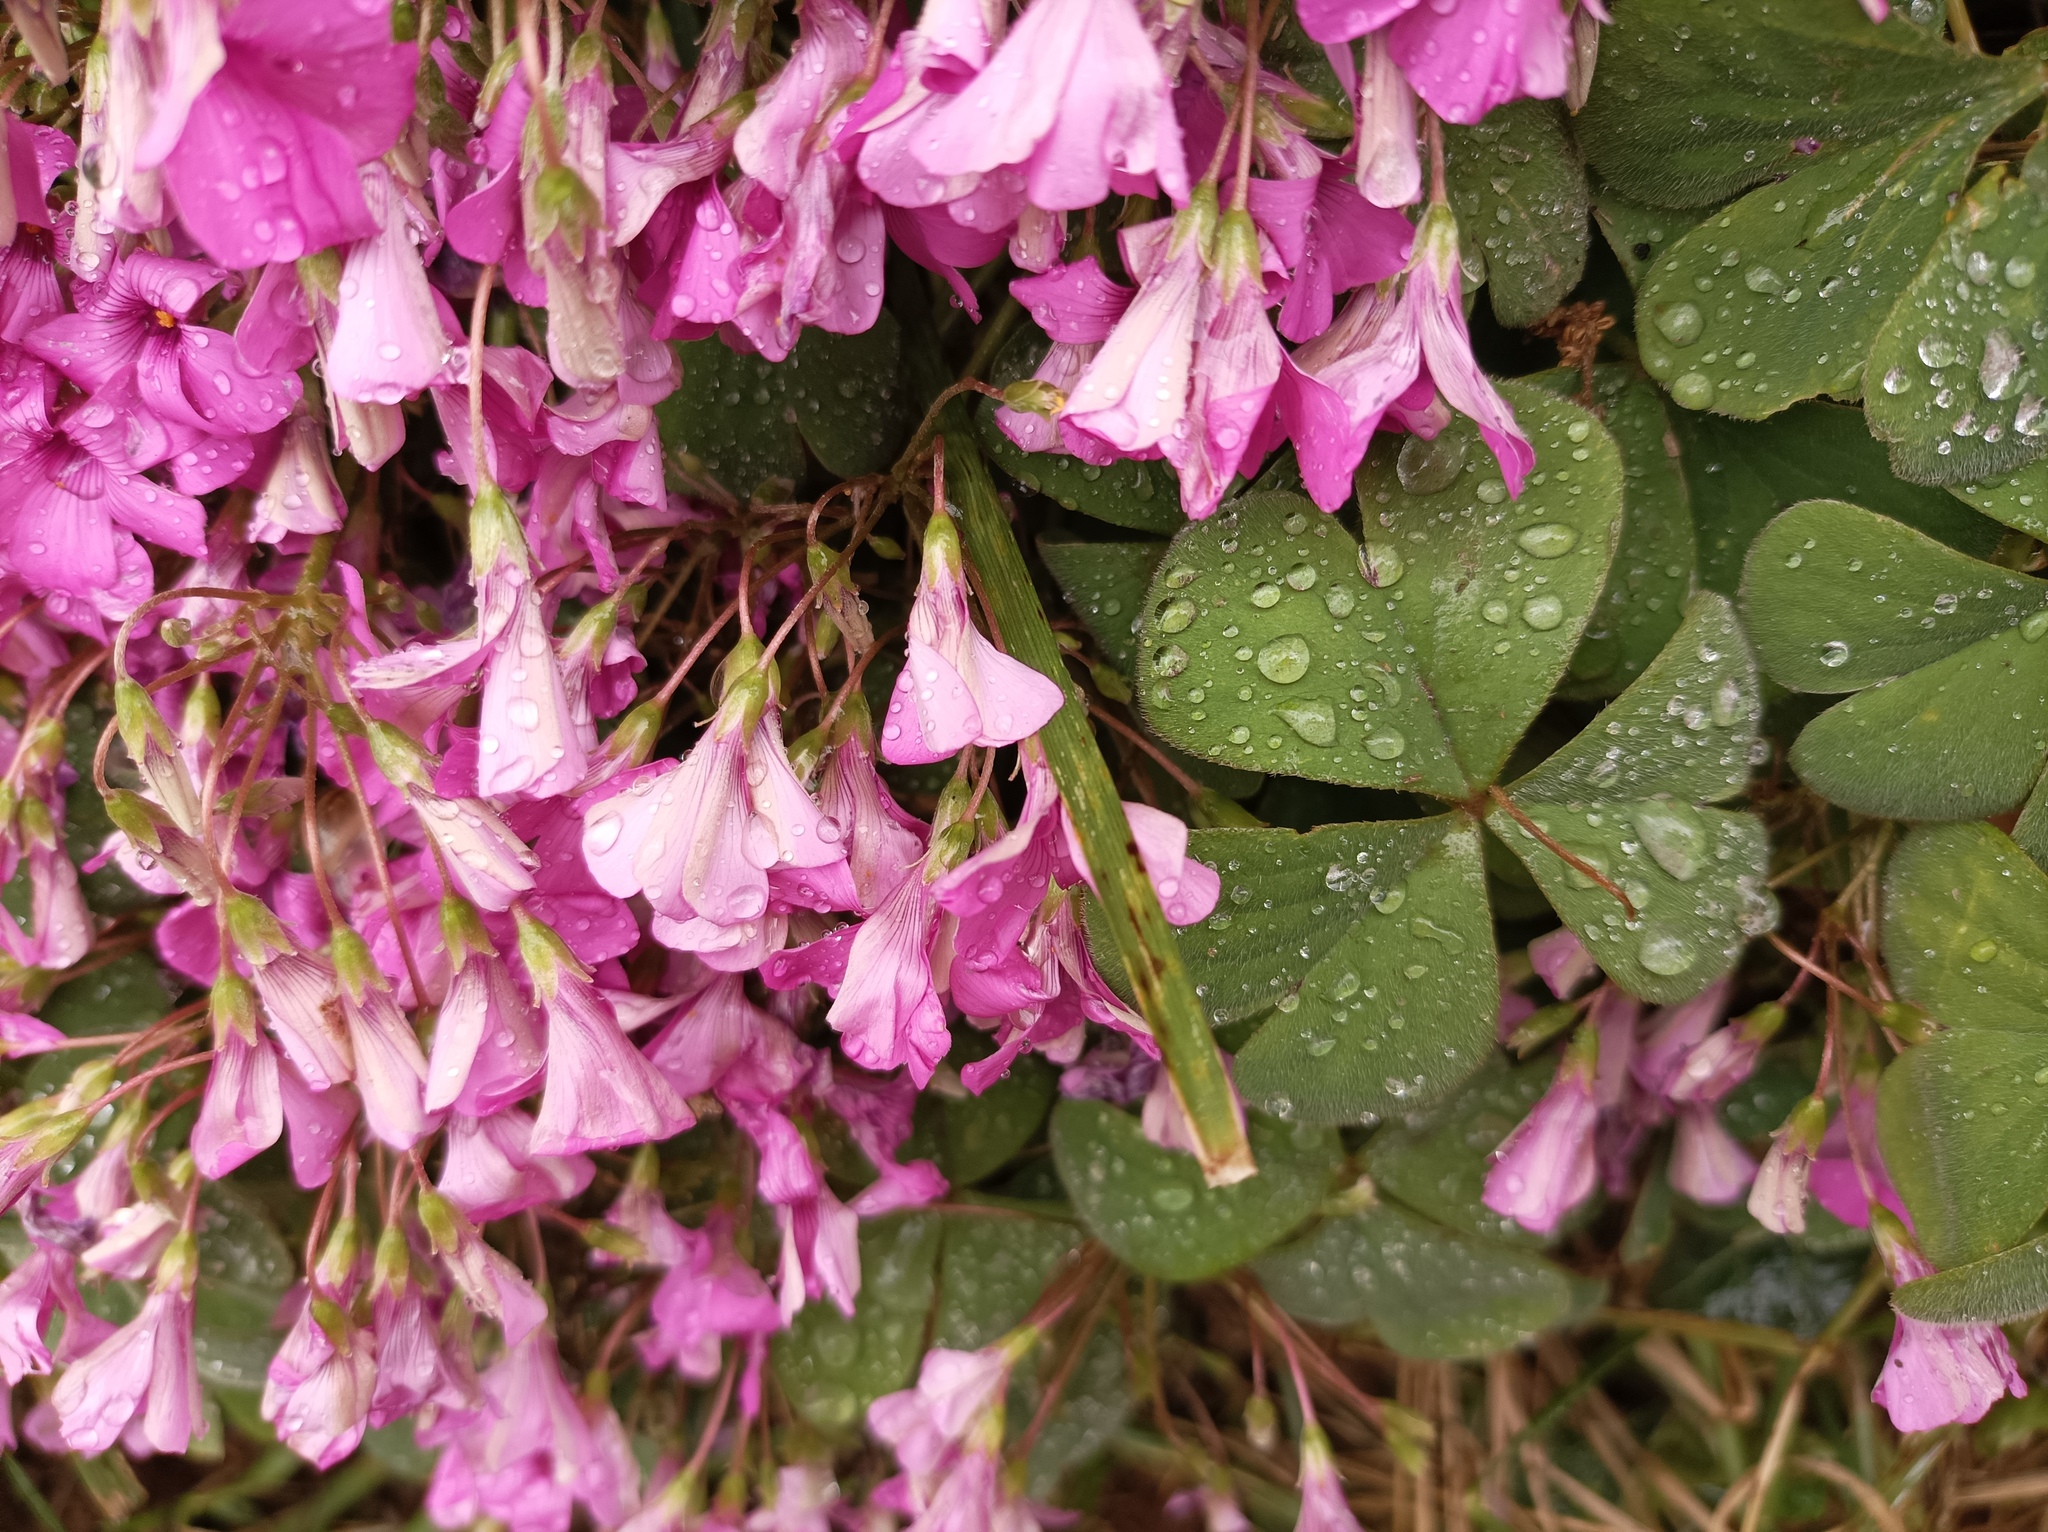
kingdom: Plantae
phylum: Tracheophyta
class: Magnoliopsida
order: Oxalidales
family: Oxalidaceae
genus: Oxalis
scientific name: Oxalis articulata
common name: Pink-sorrel
